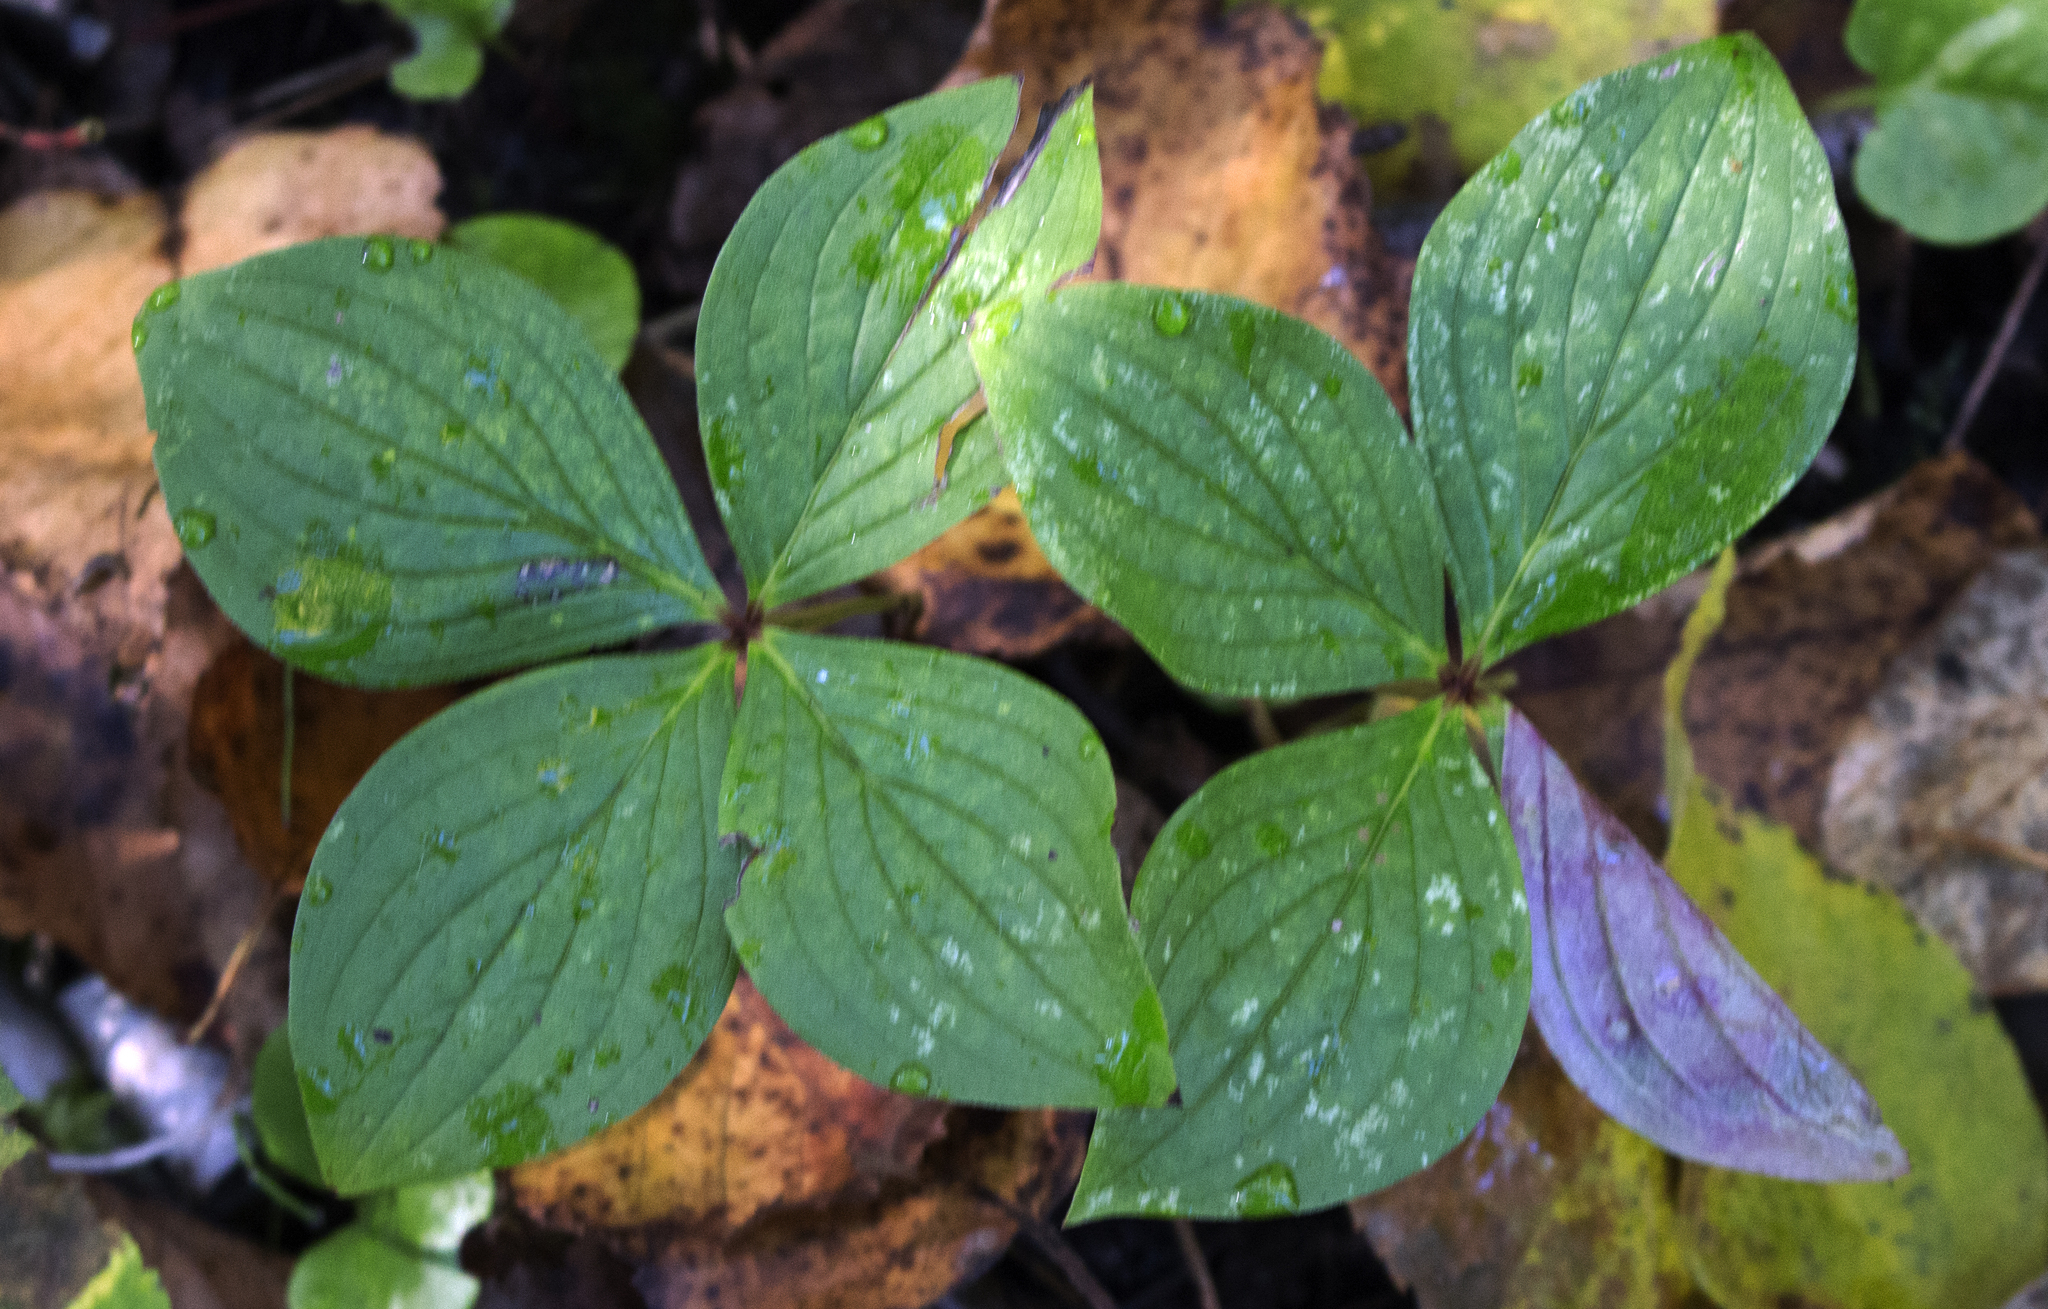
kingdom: Plantae
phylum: Tracheophyta
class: Magnoliopsida
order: Cornales
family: Cornaceae
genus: Cornus
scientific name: Cornus canadensis
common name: Creeping dogwood
